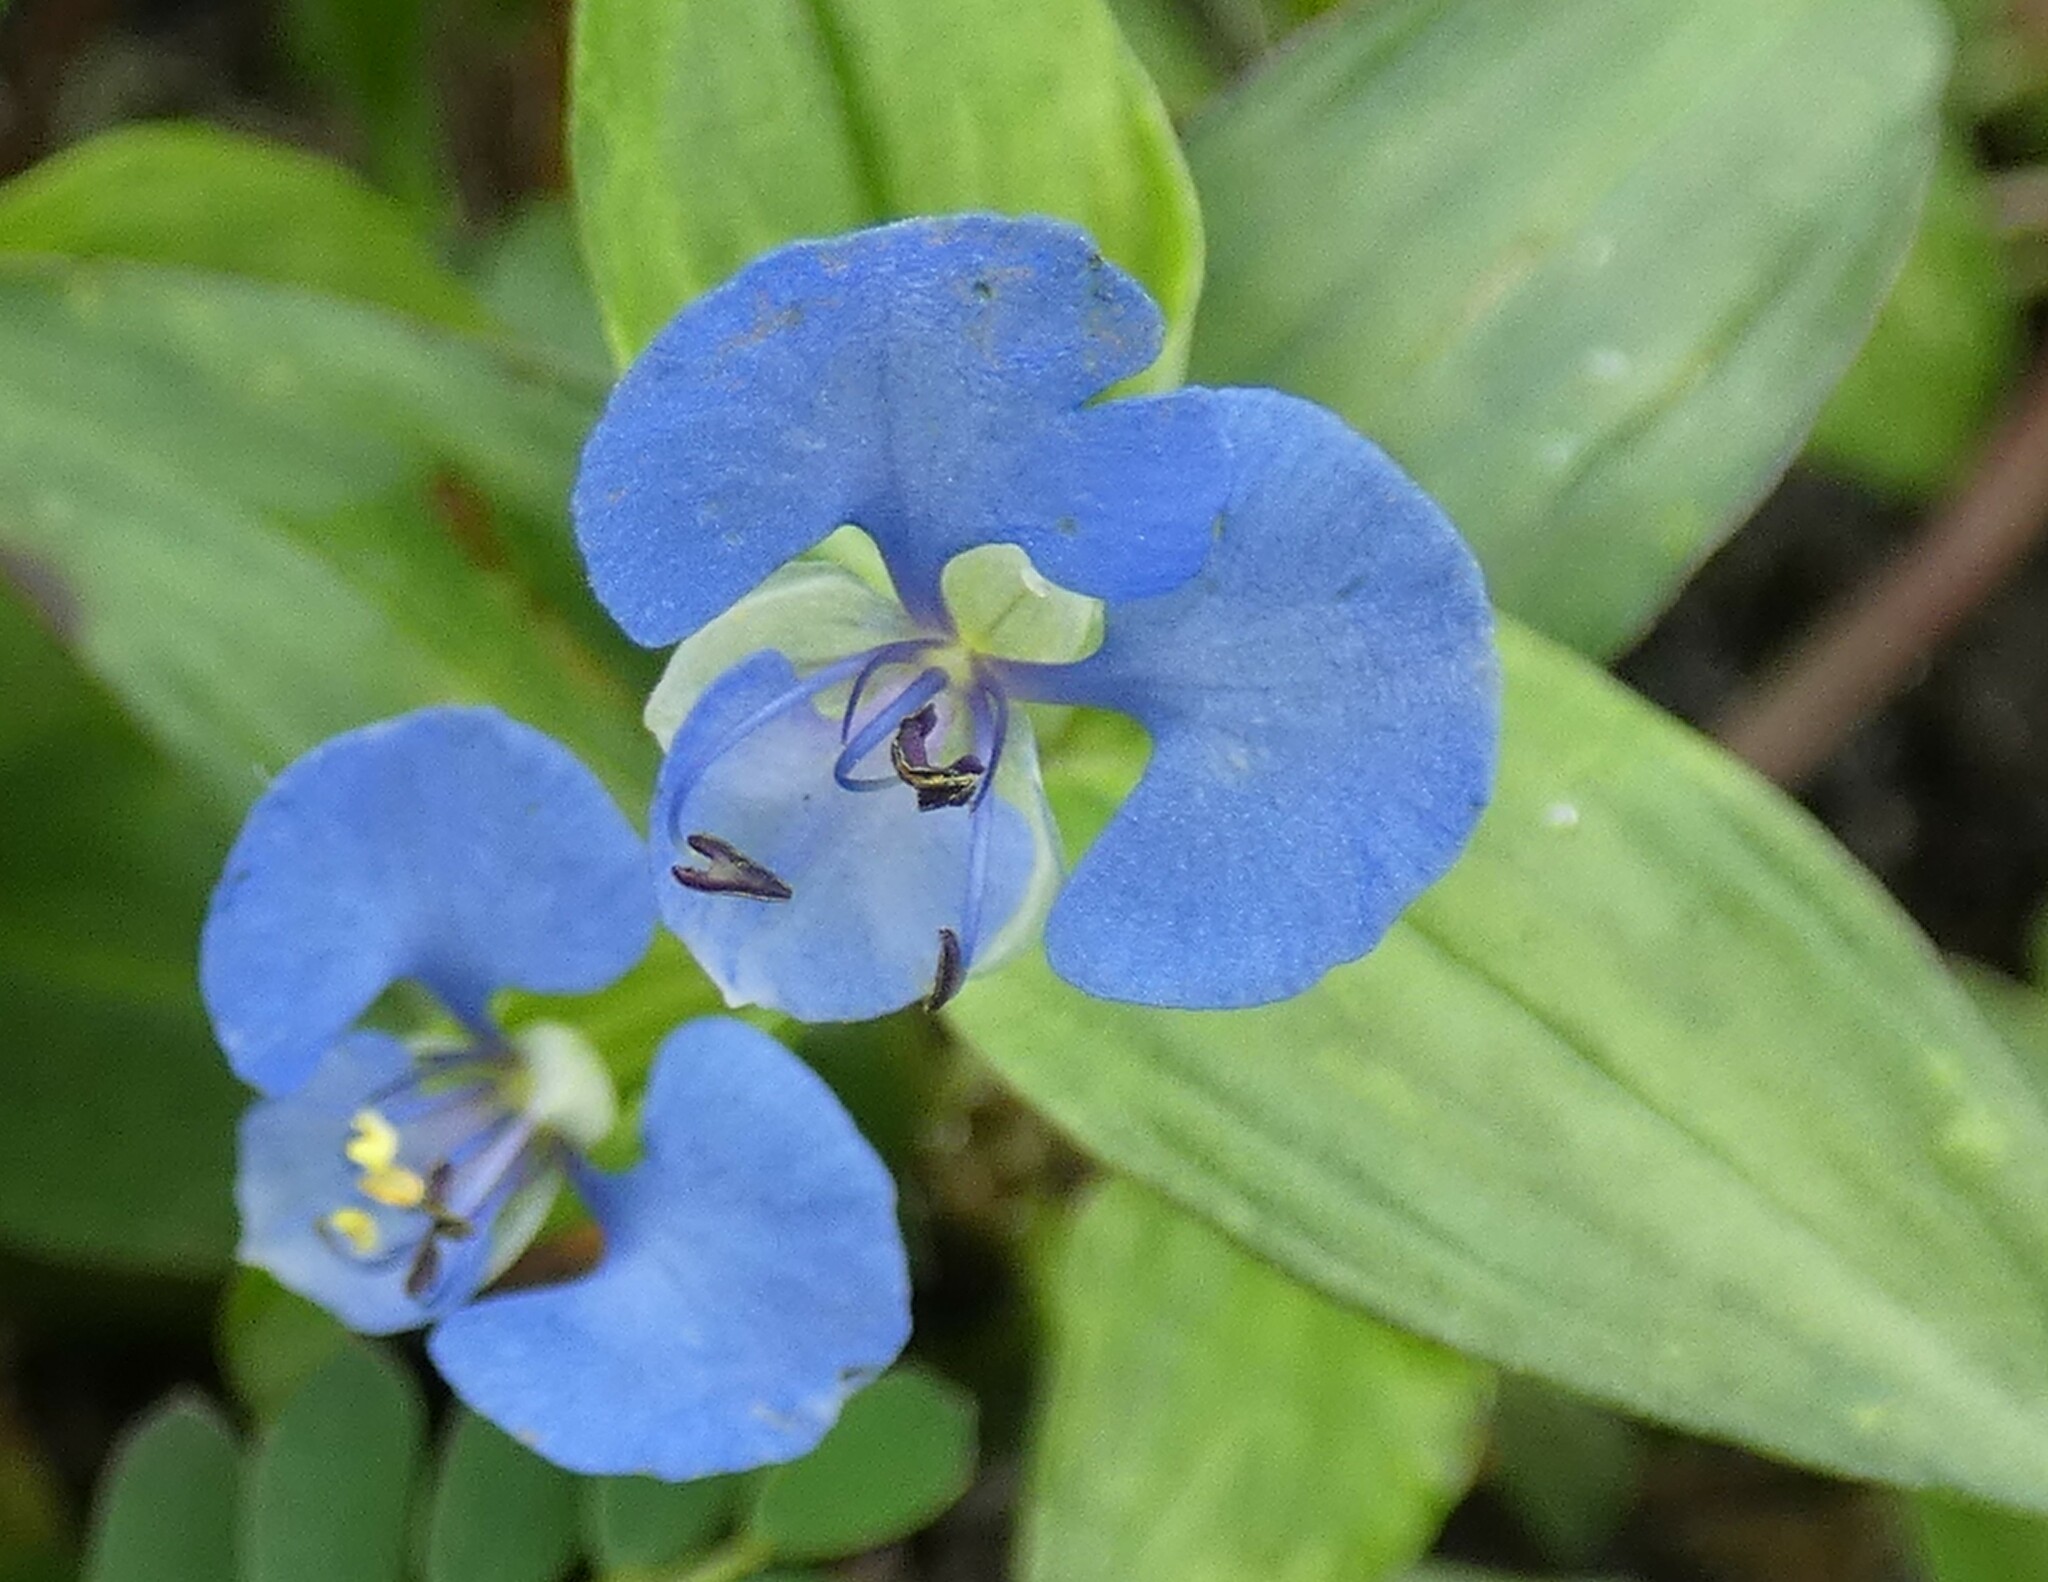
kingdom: Plantae
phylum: Tracheophyta
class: Liliopsida
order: Commelinales
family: Commelinaceae
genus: Commelina
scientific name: Commelina diffusa
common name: Climbing dayflower
